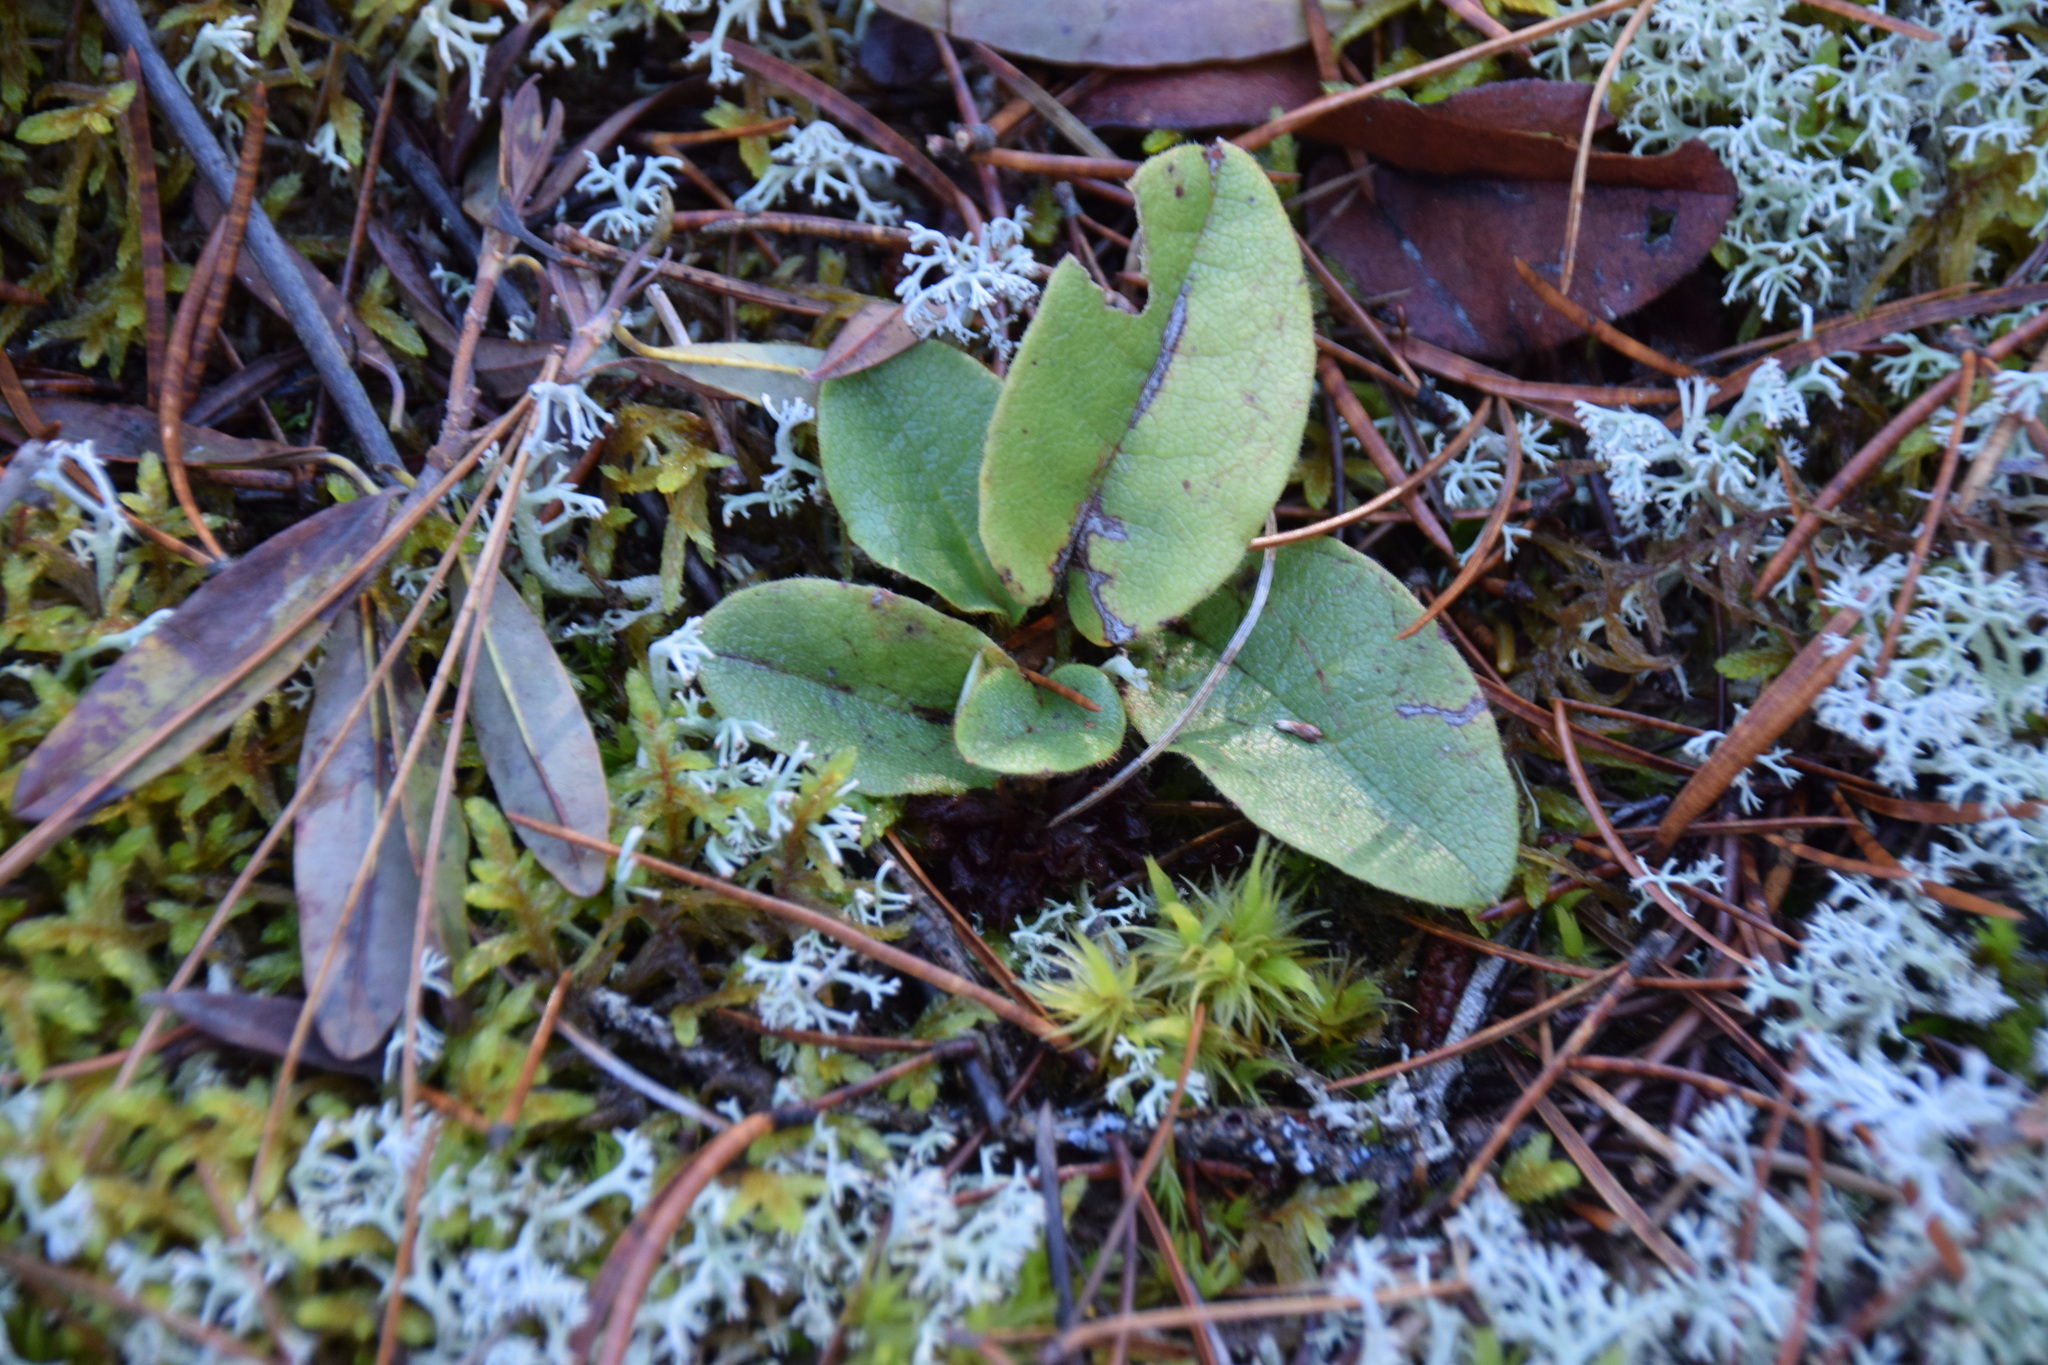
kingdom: Plantae
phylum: Tracheophyta
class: Magnoliopsida
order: Ericales
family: Ericaceae
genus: Epigaea
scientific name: Epigaea repens
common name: Gravelroot
